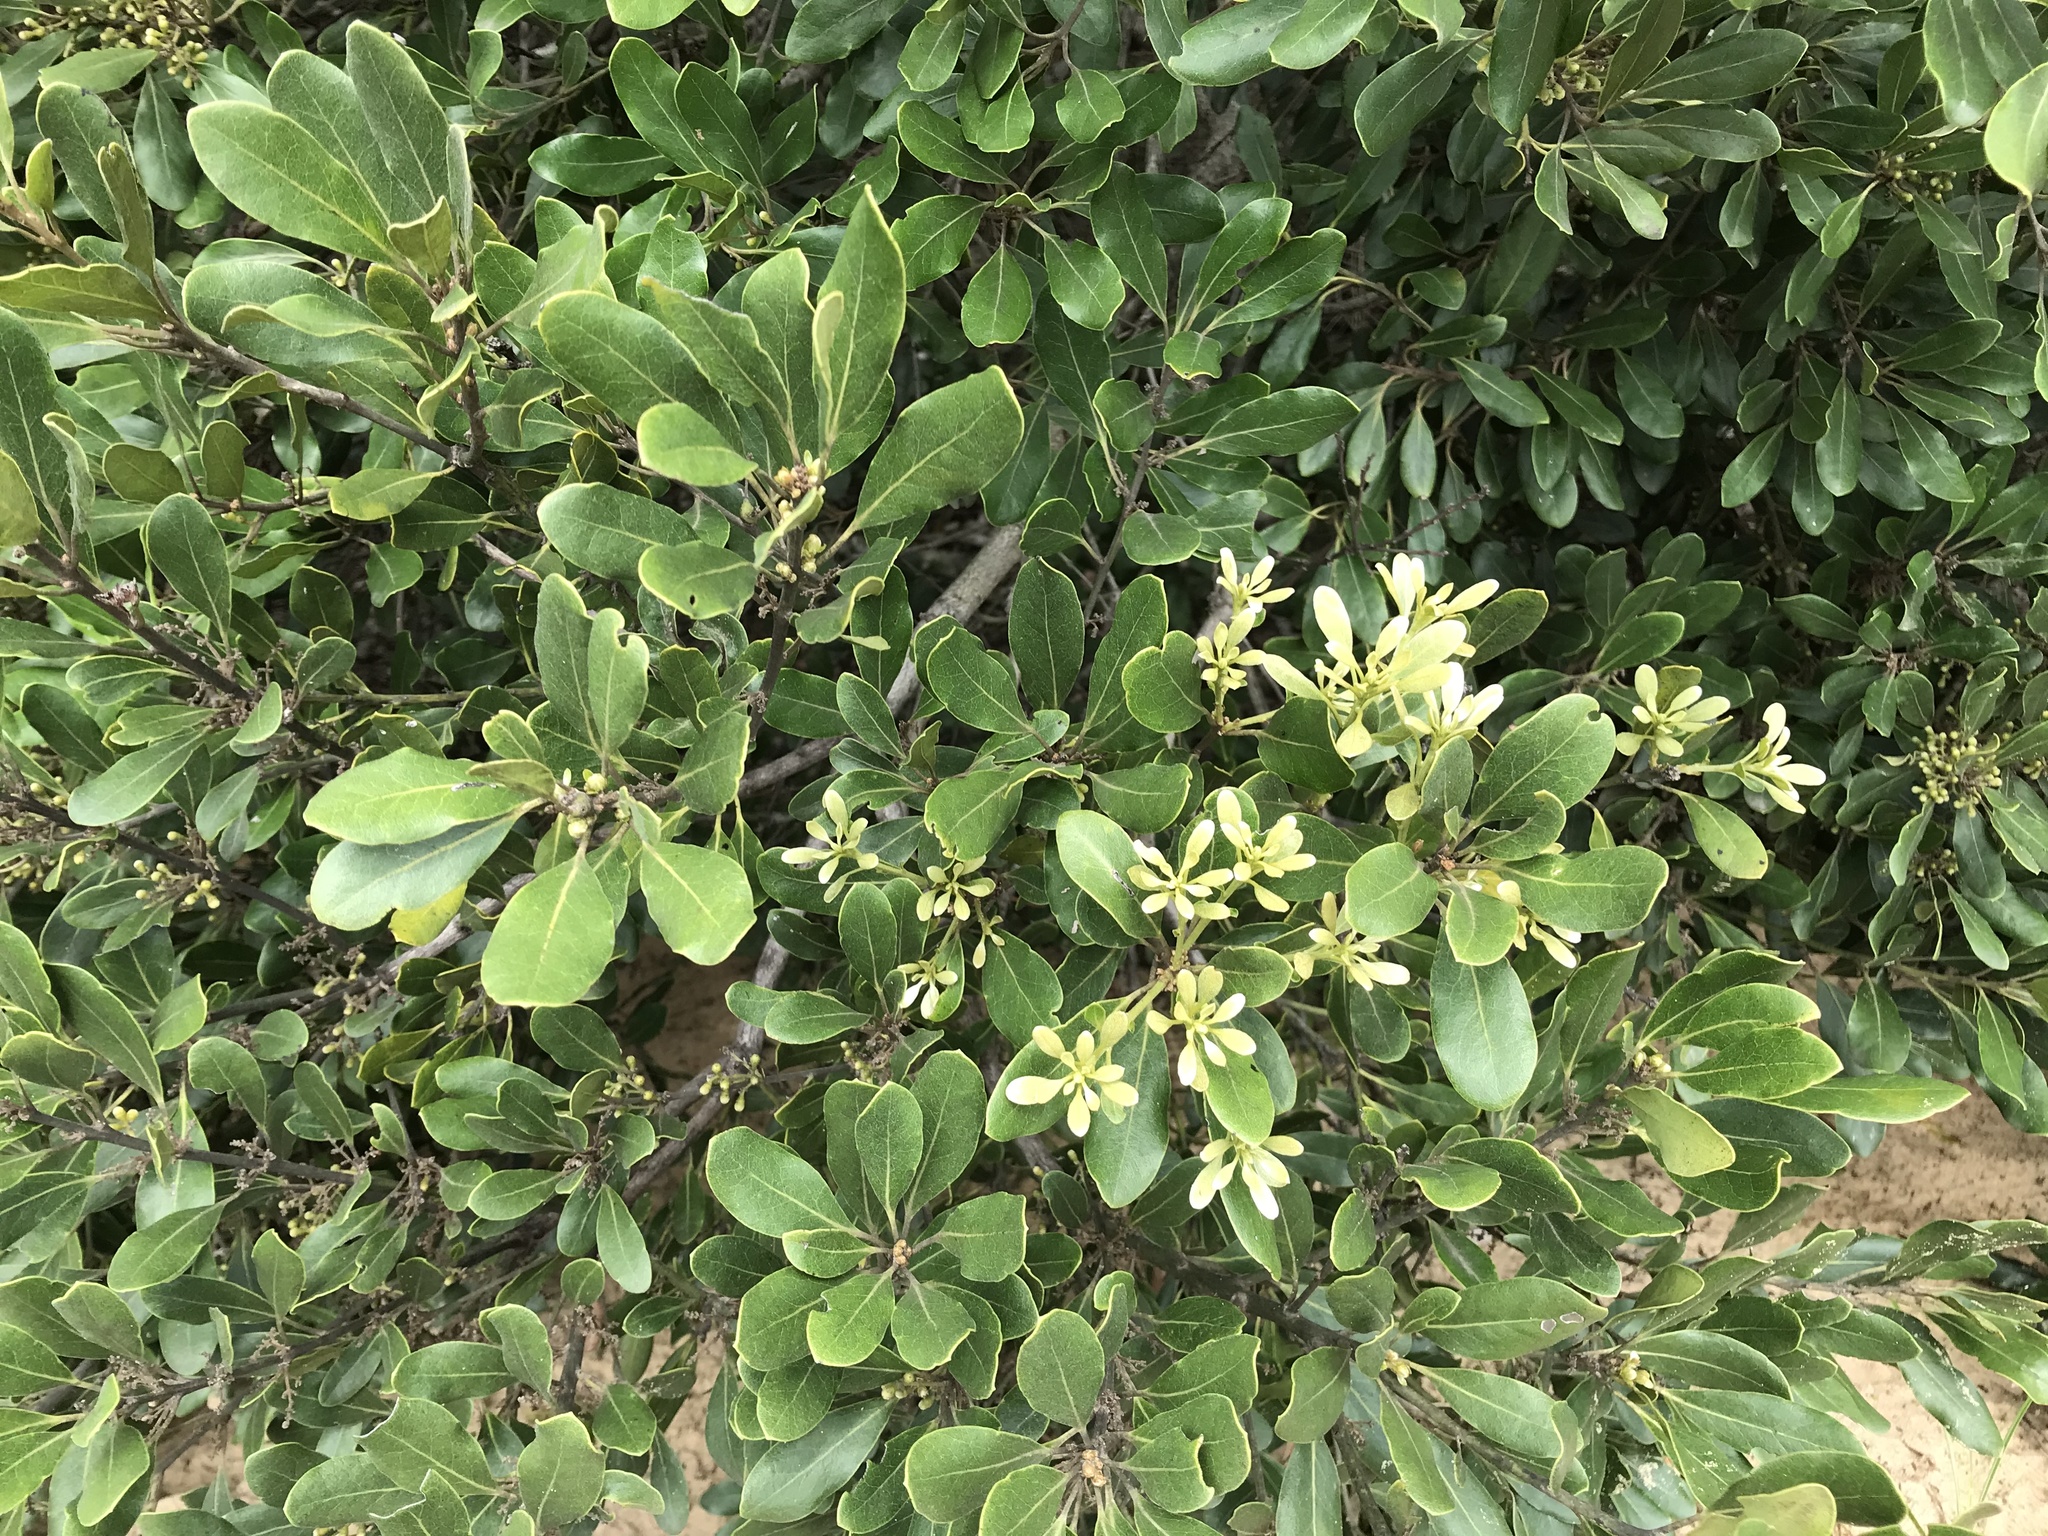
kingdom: Plantae
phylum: Tracheophyta
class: Magnoliopsida
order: Ericales
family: Ebenaceae
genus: Euclea
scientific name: Euclea natalensis
